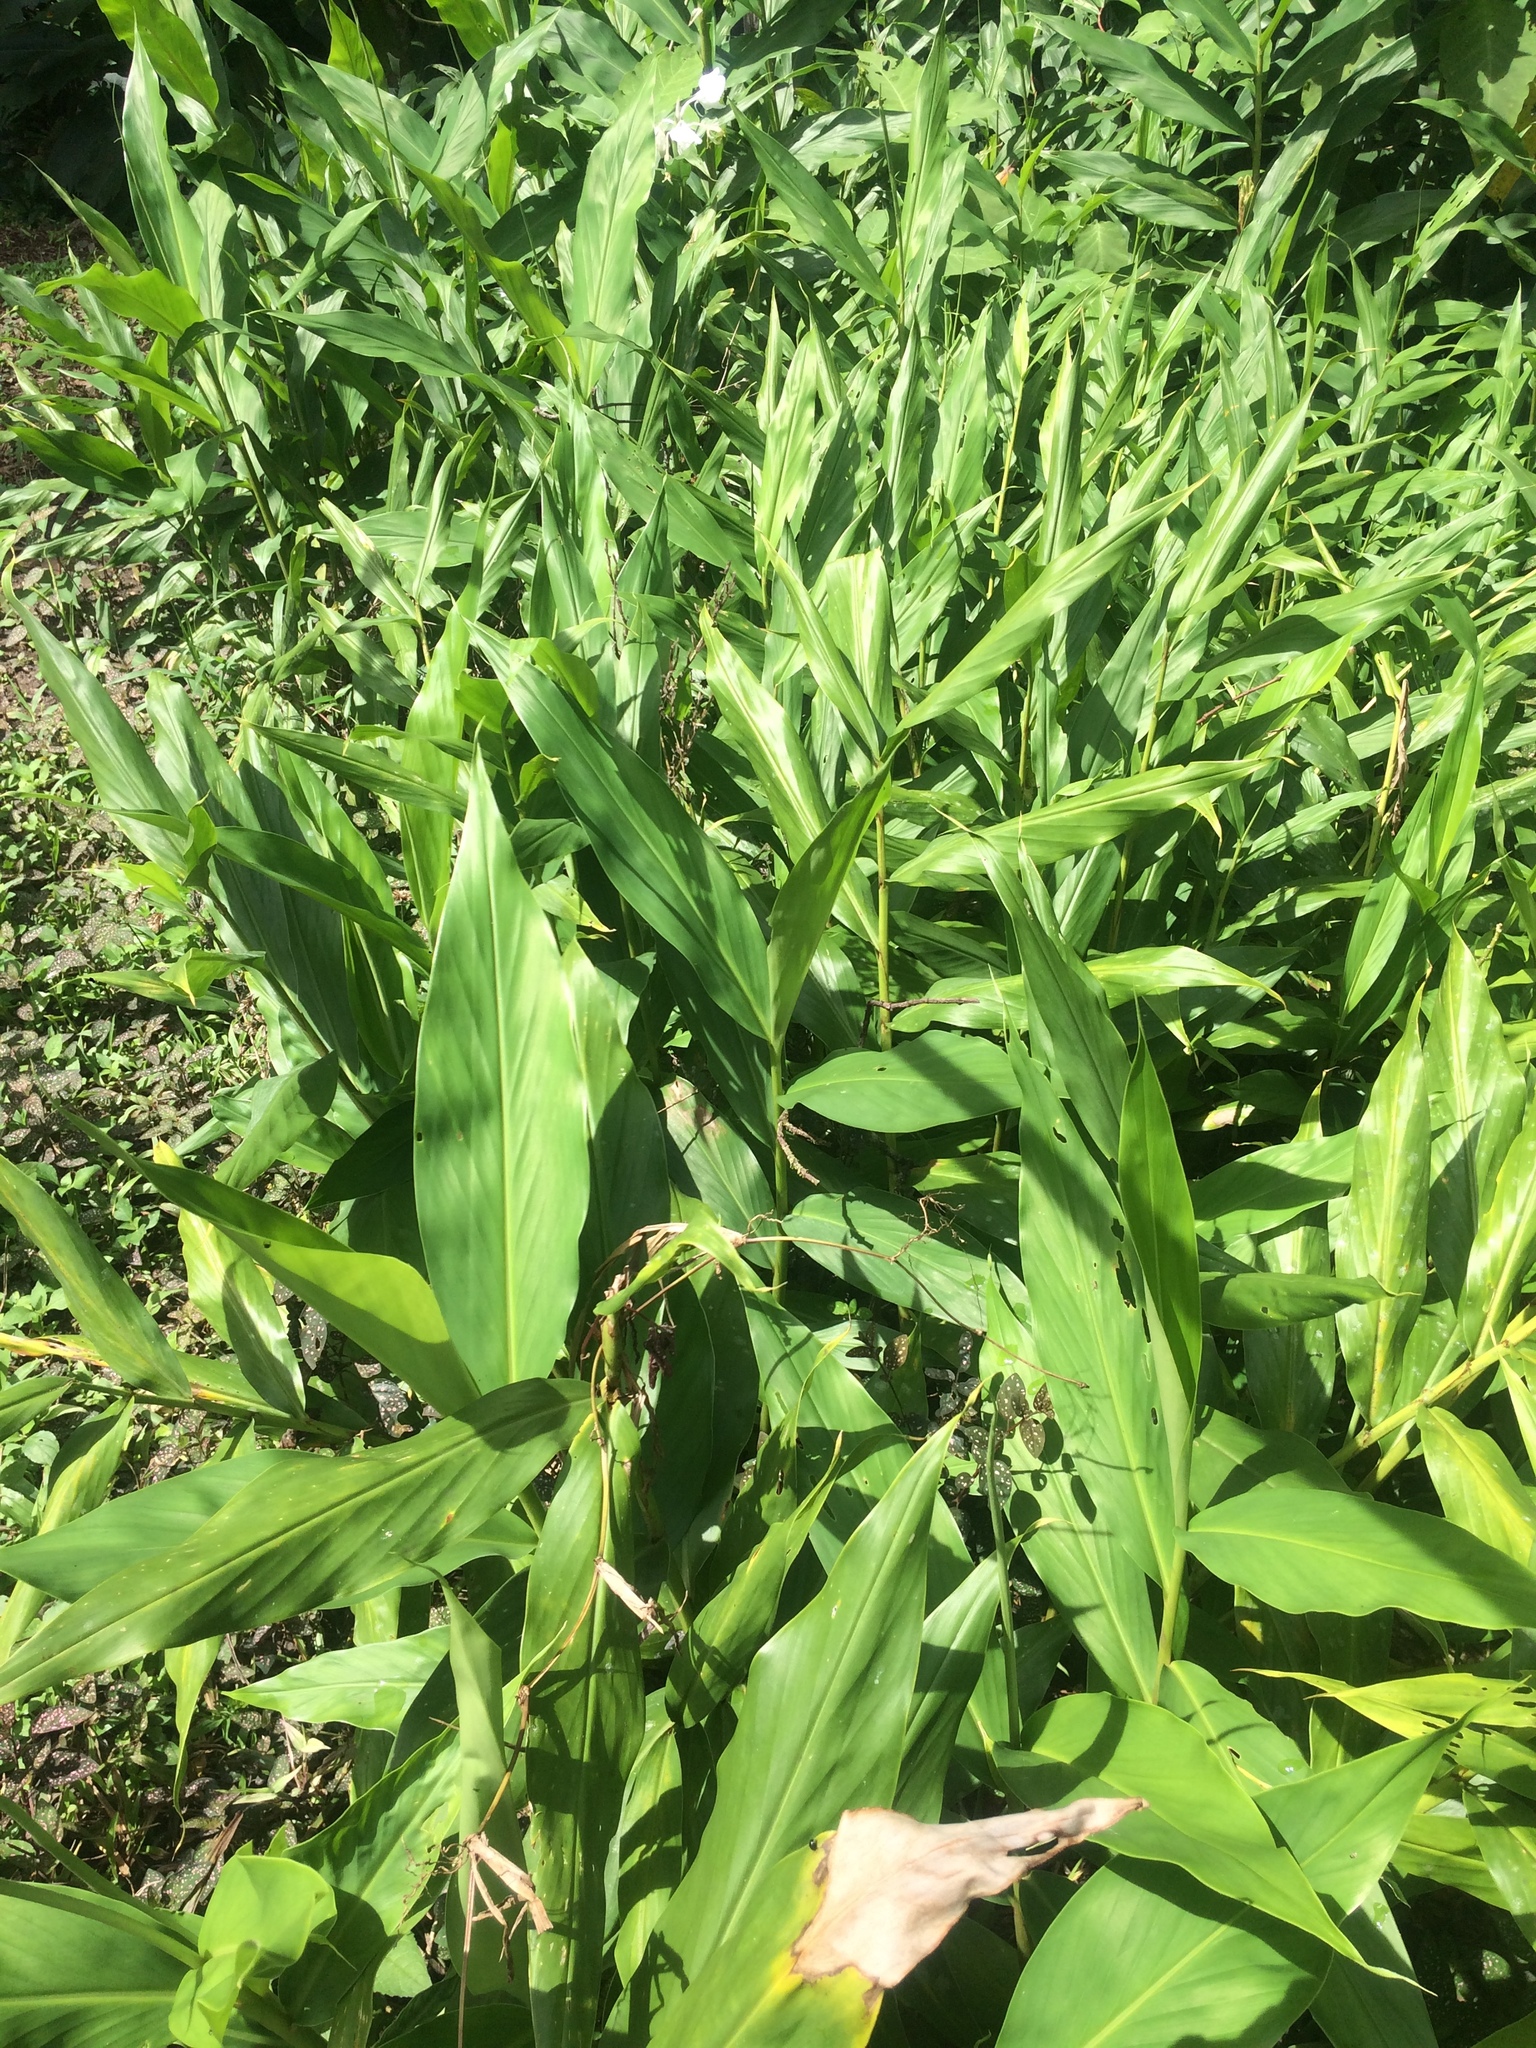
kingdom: Plantae
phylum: Tracheophyta
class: Liliopsida
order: Zingiberales
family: Zingiberaceae
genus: Hedychium
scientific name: Hedychium coronarium
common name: White garland-lily
